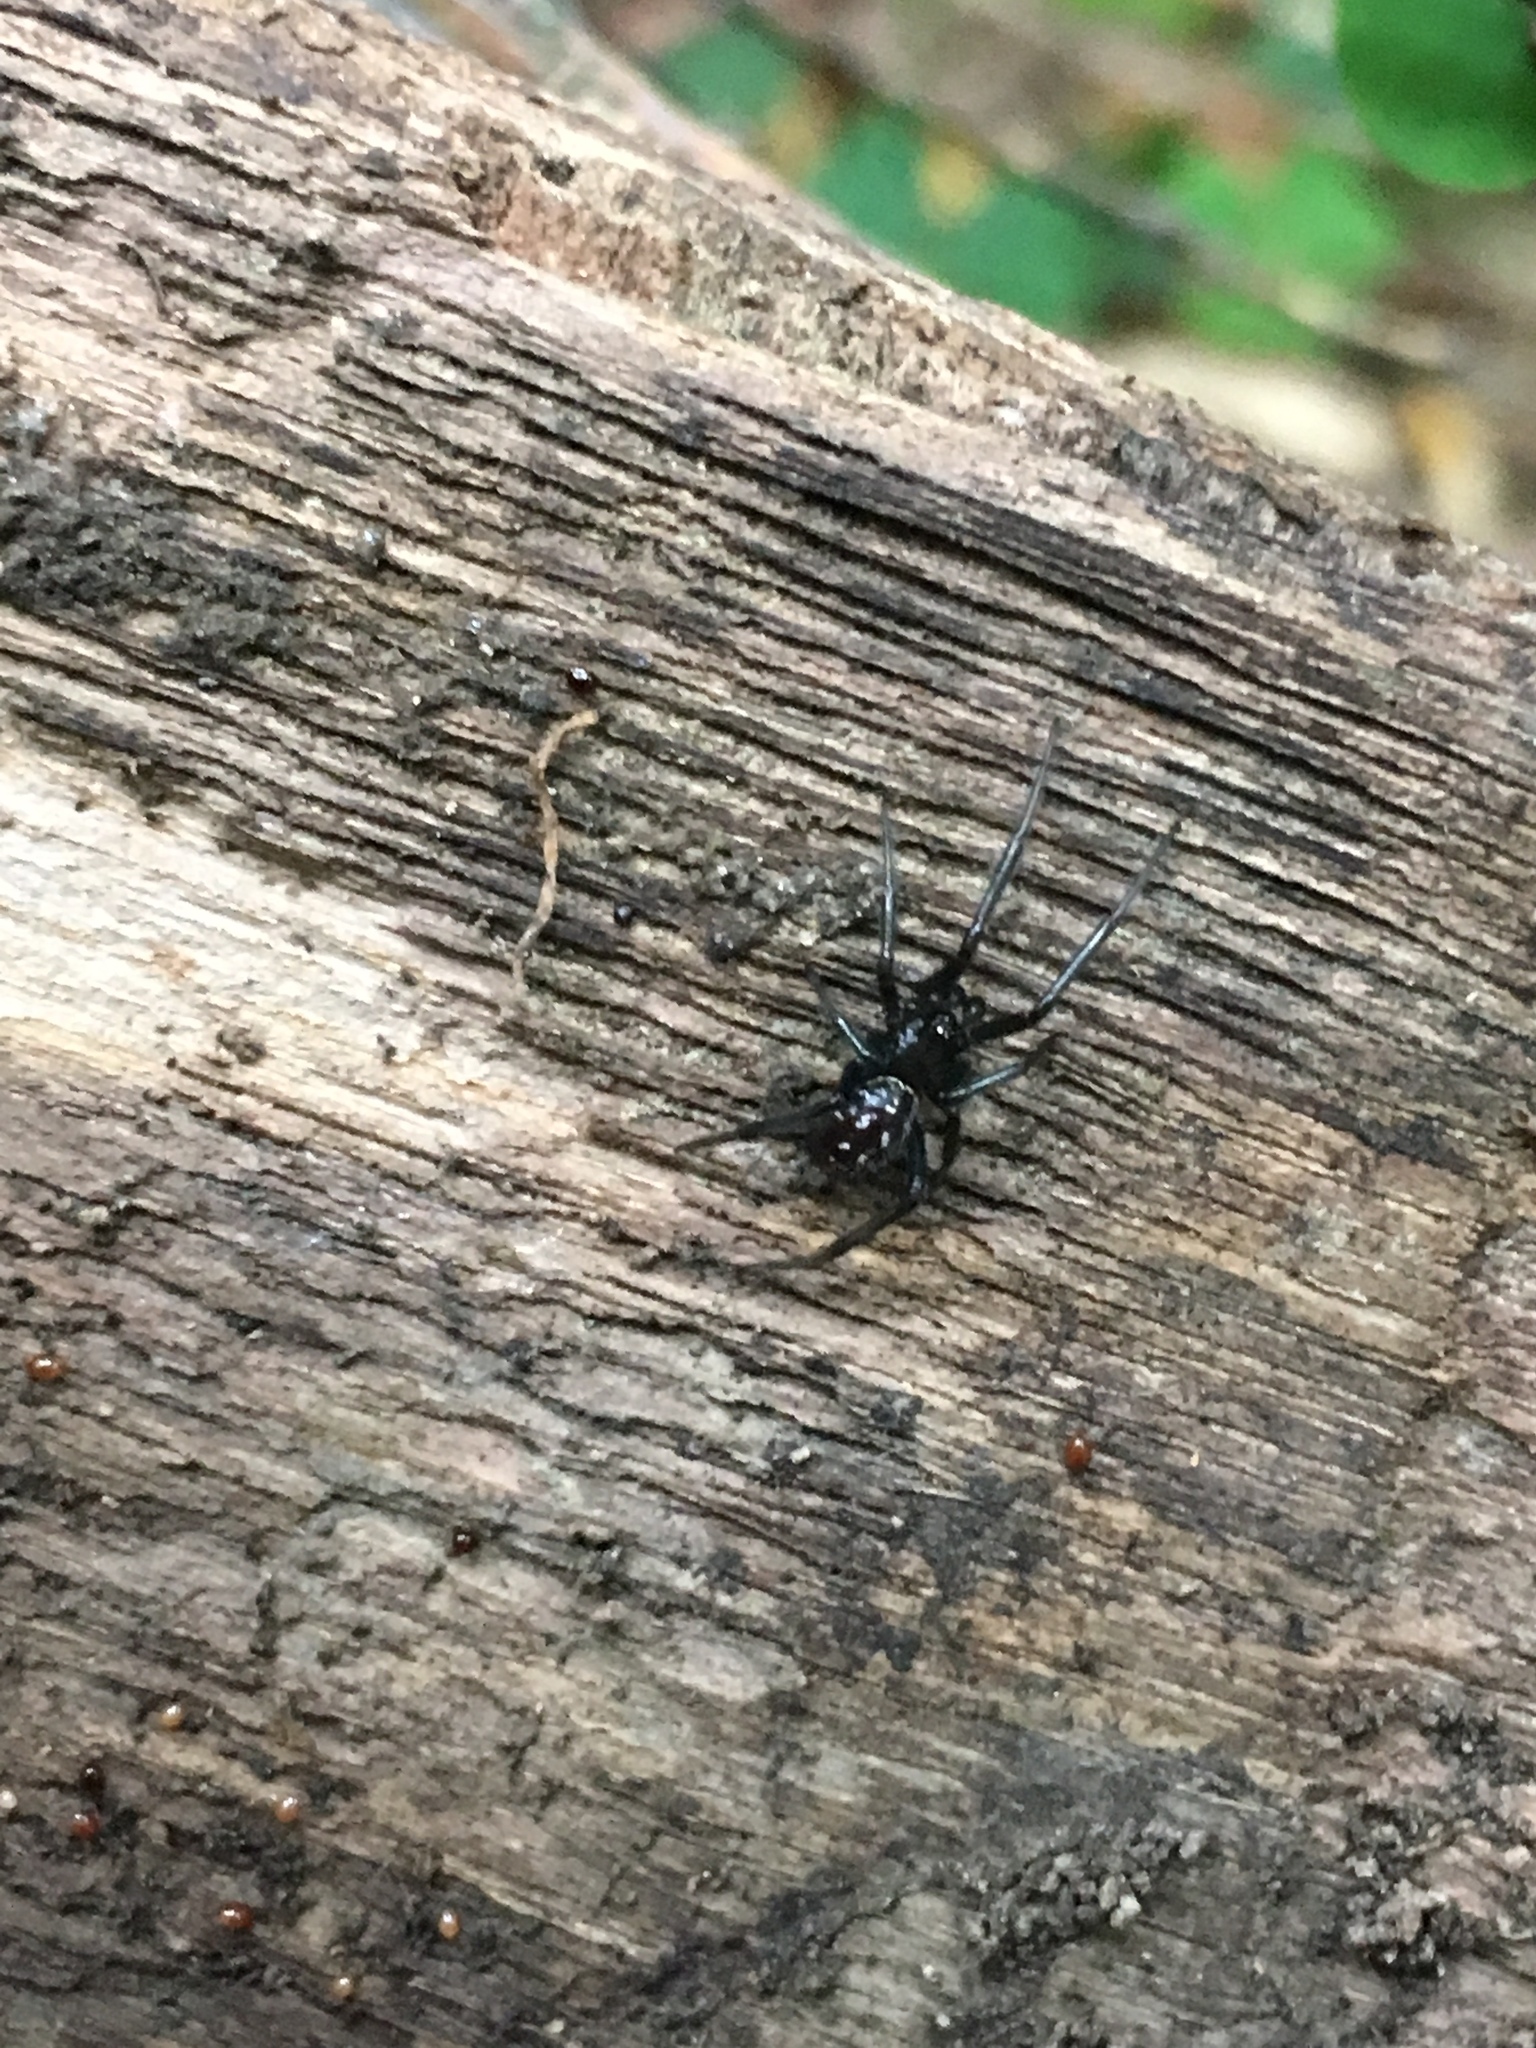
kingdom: Animalia
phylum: Arthropoda
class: Arachnida
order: Araneae
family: Theridiidae
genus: Steatoda
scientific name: Steatoda capensis
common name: Cobweb weaver
